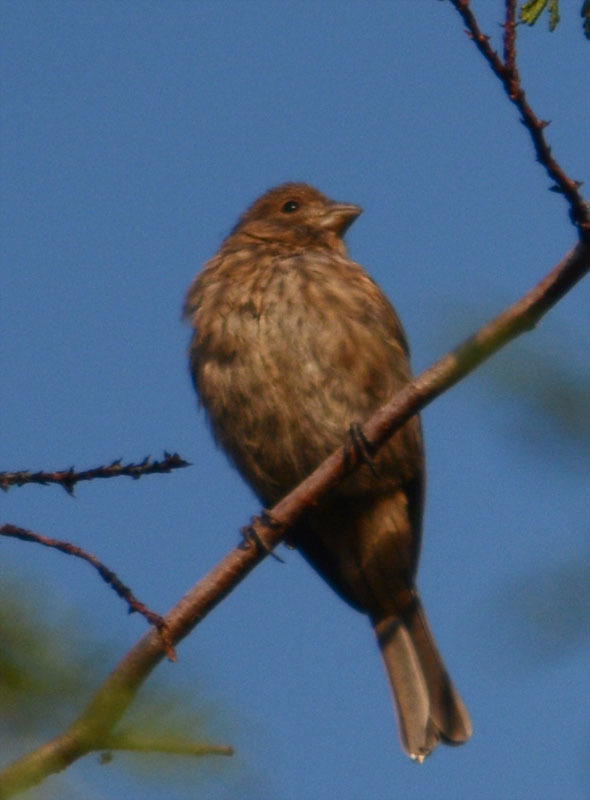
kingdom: Animalia
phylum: Chordata
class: Aves
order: Passeriformes
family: Fringillidae
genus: Haemorhous
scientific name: Haemorhous mexicanus
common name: House finch
